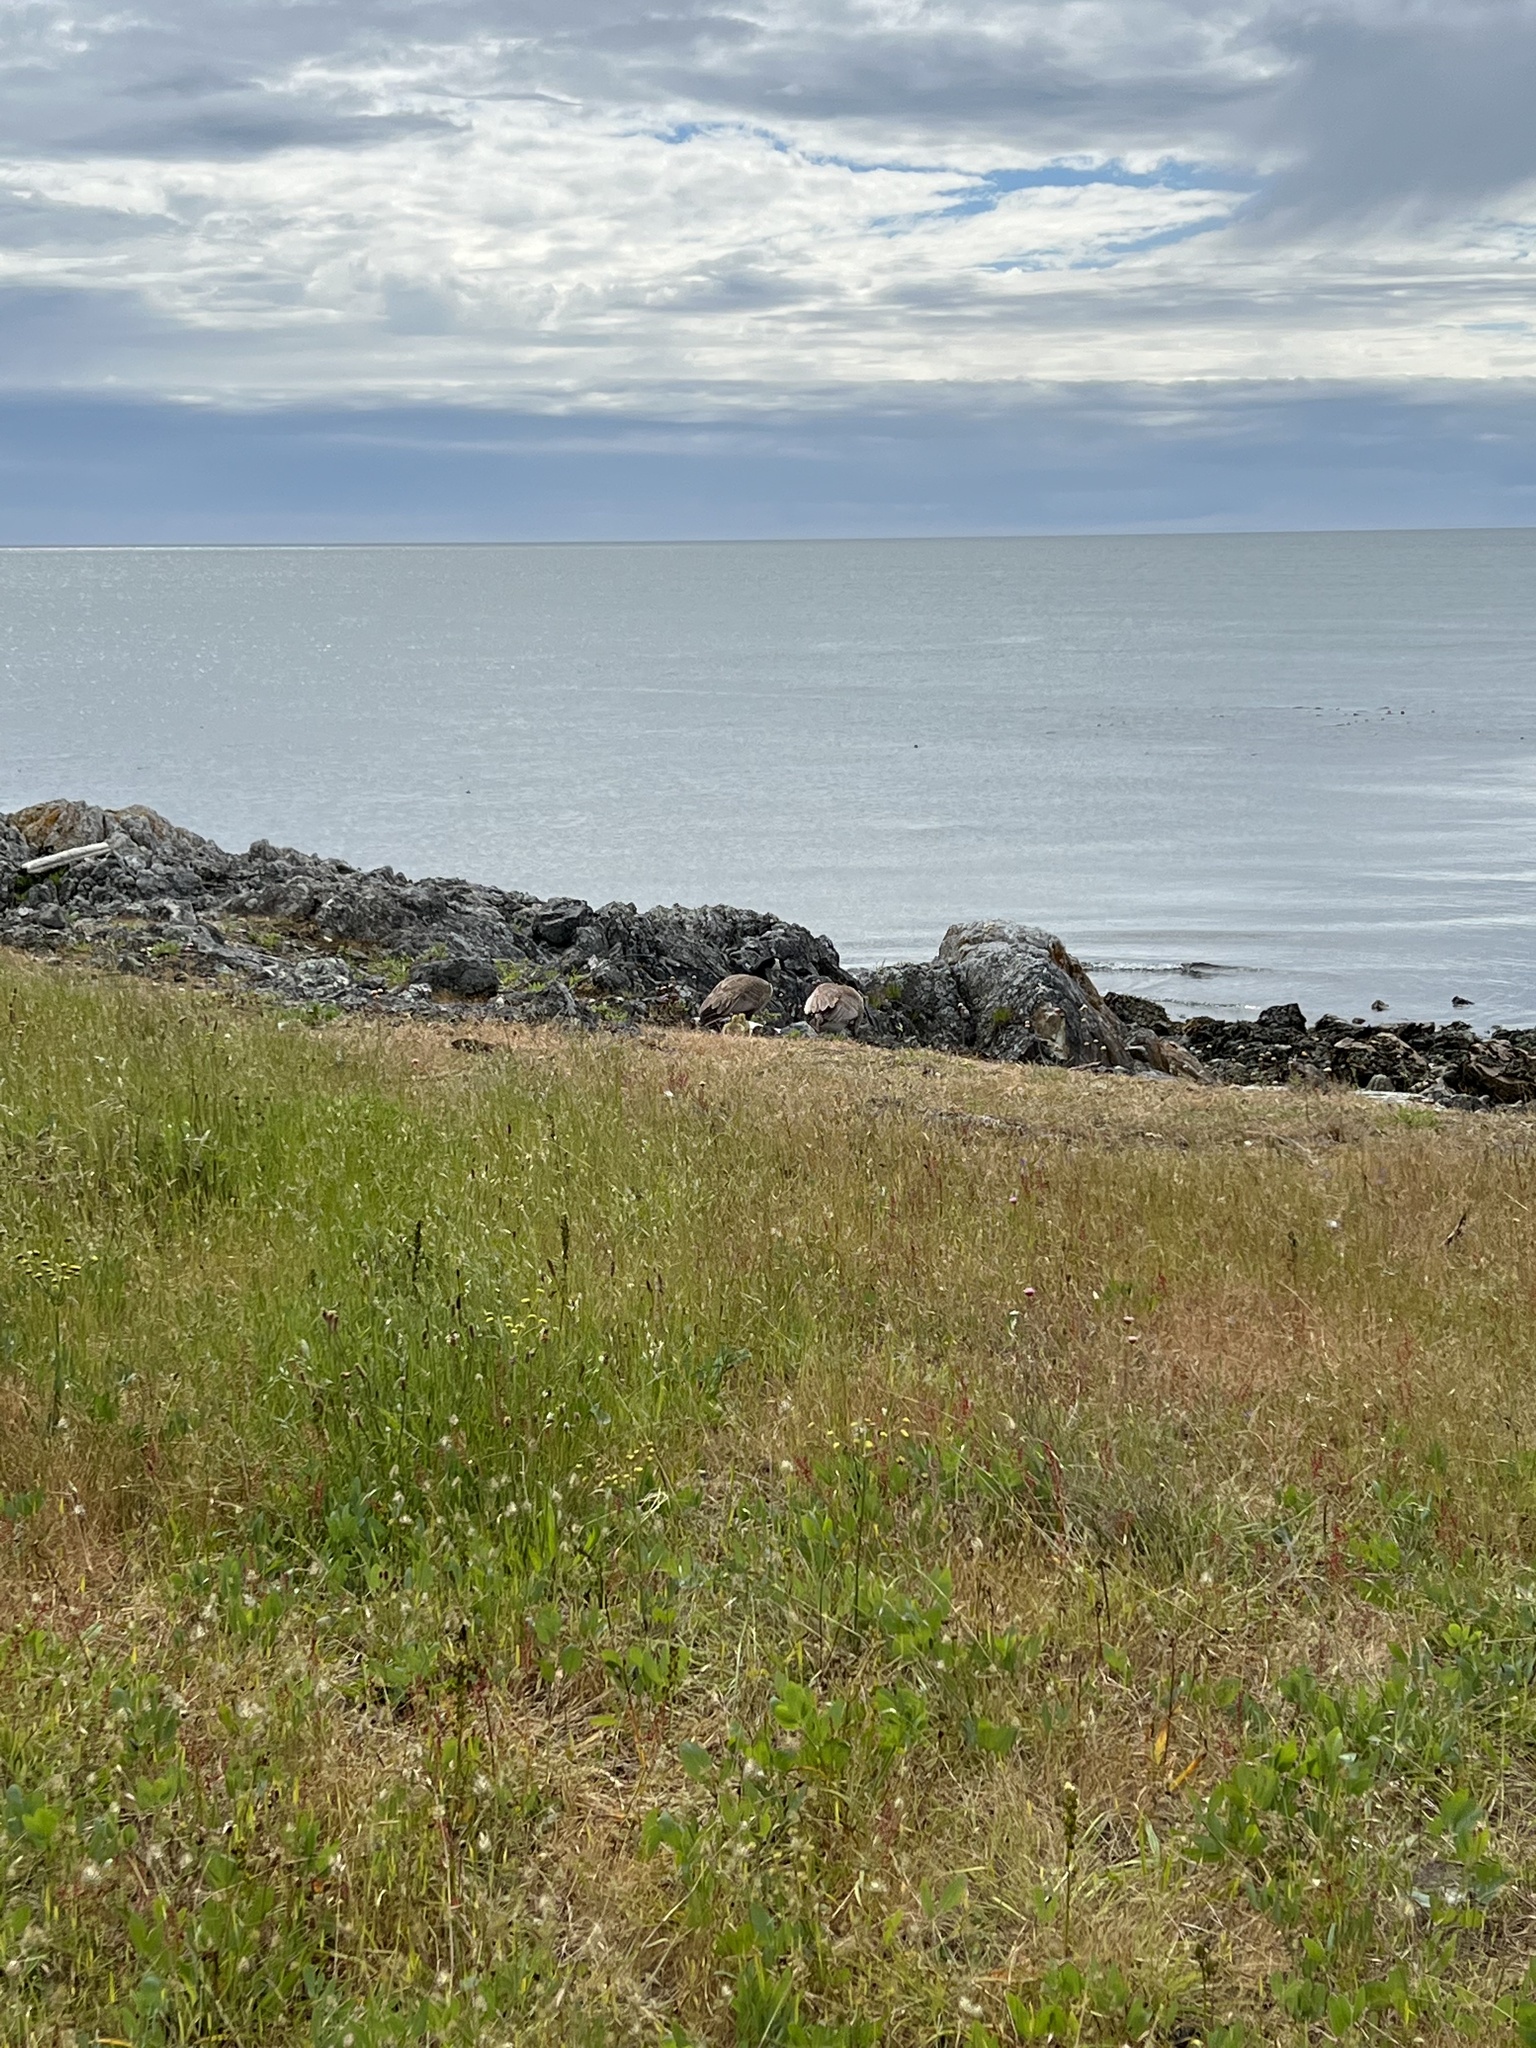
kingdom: Animalia
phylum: Chordata
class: Aves
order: Anseriformes
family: Anatidae
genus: Branta
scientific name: Branta canadensis
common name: Canada goose
